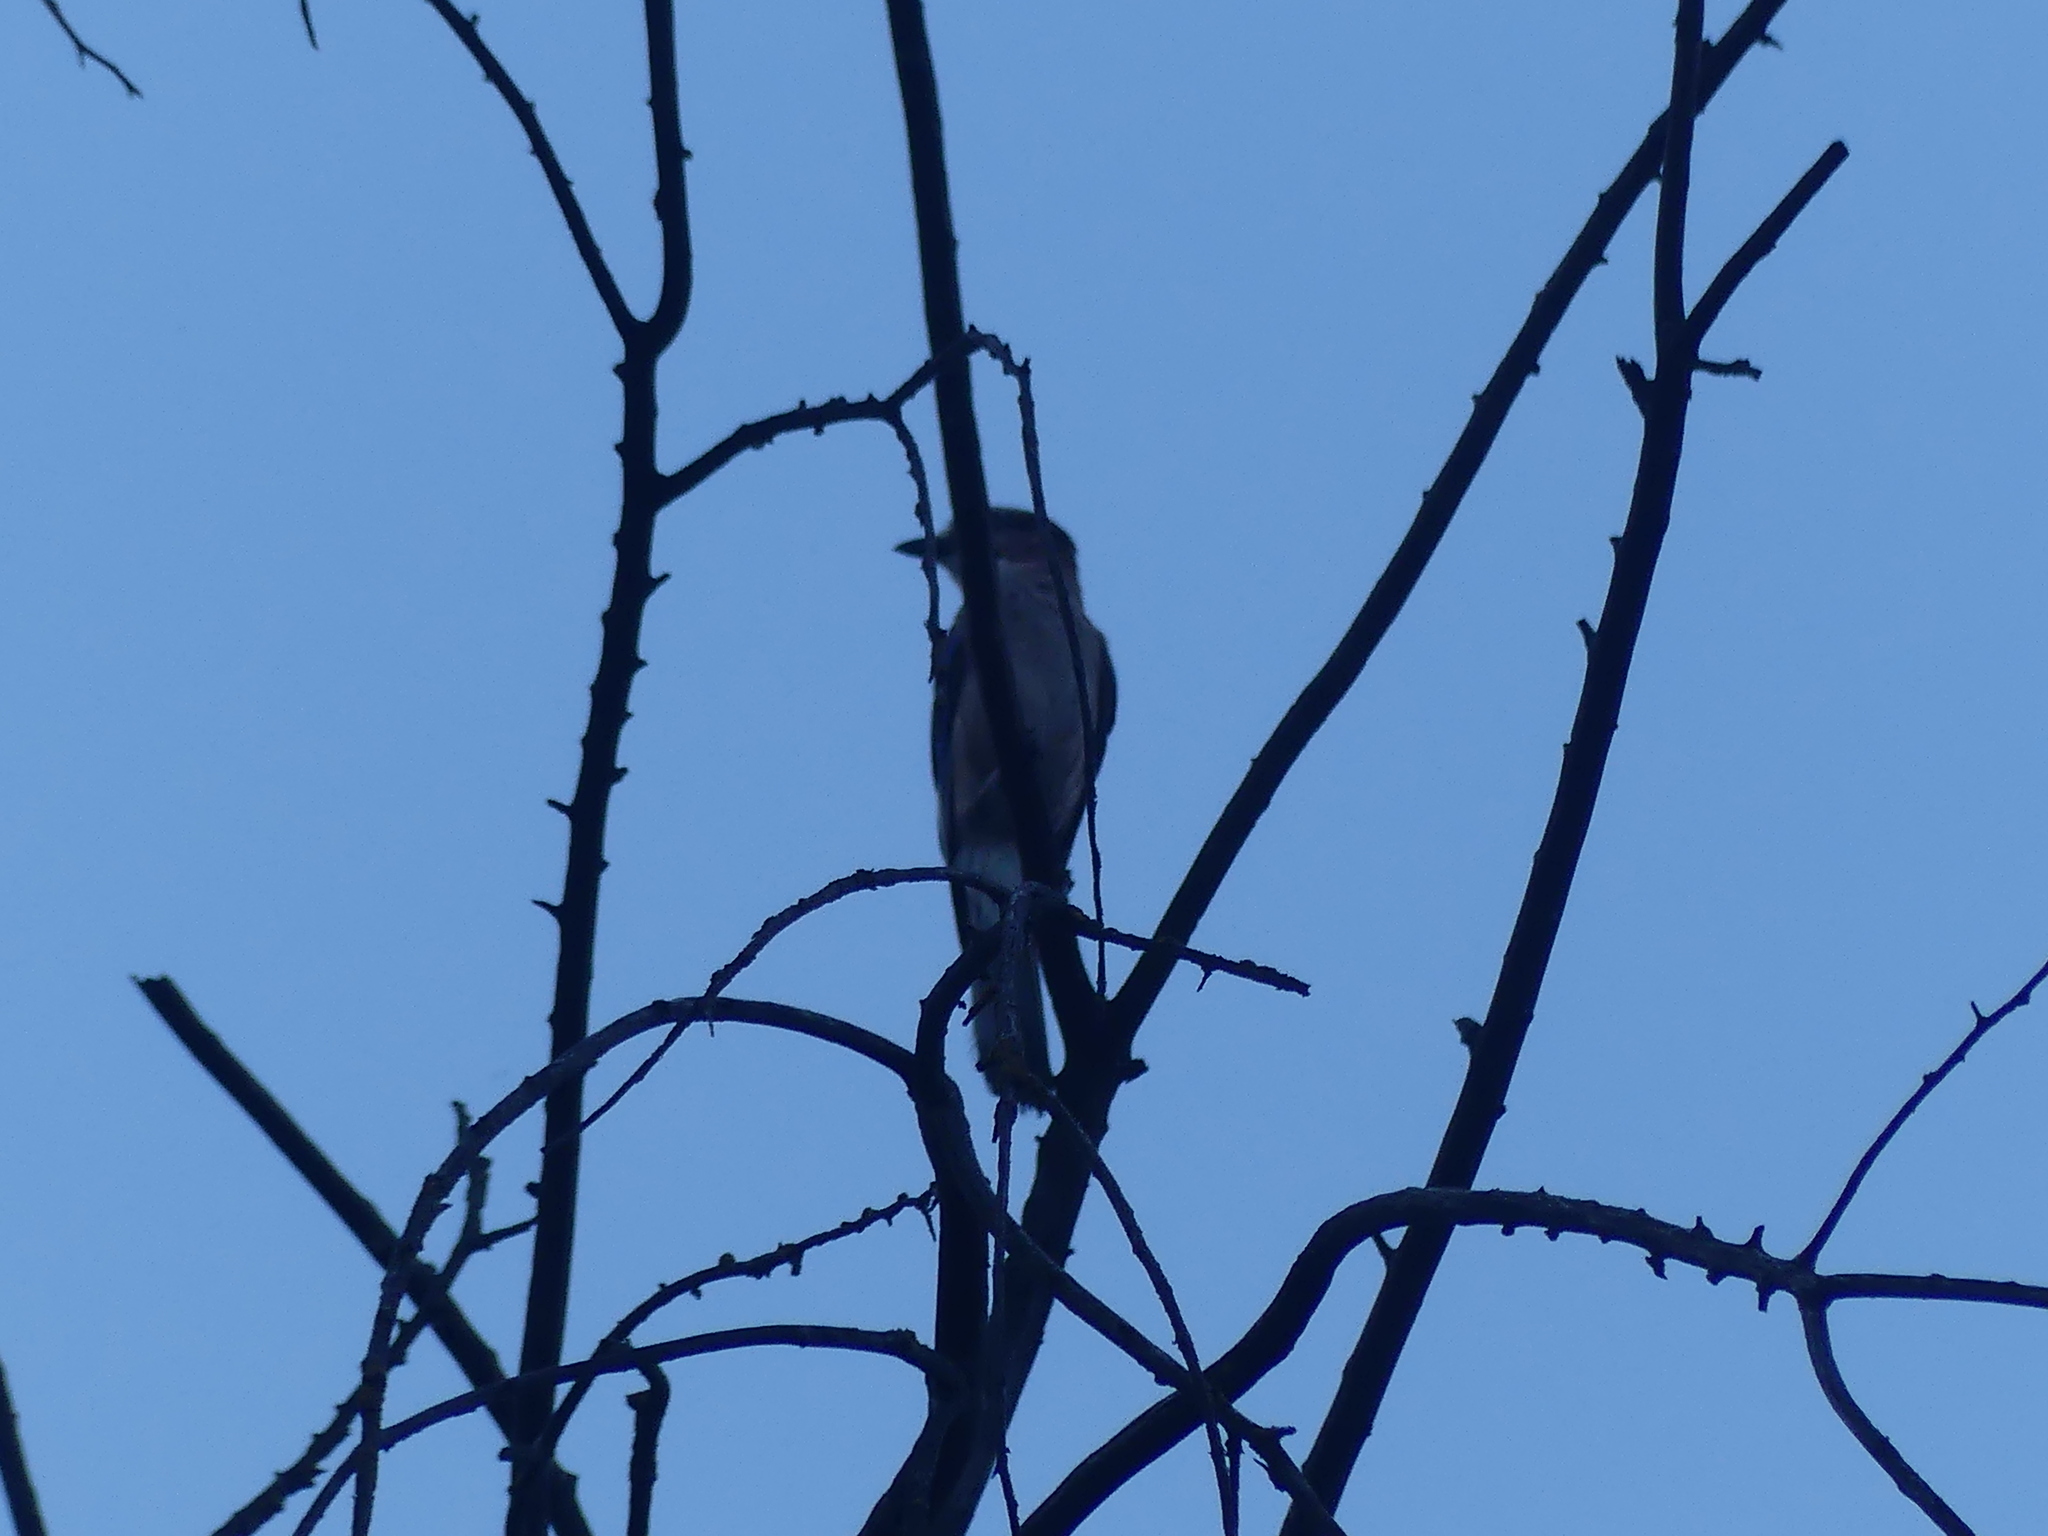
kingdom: Animalia
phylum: Chordata
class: Aves
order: Passeriformes
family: Corvidae
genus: Garrulus
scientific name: Garrulus glandarius
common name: Eurasian jay
